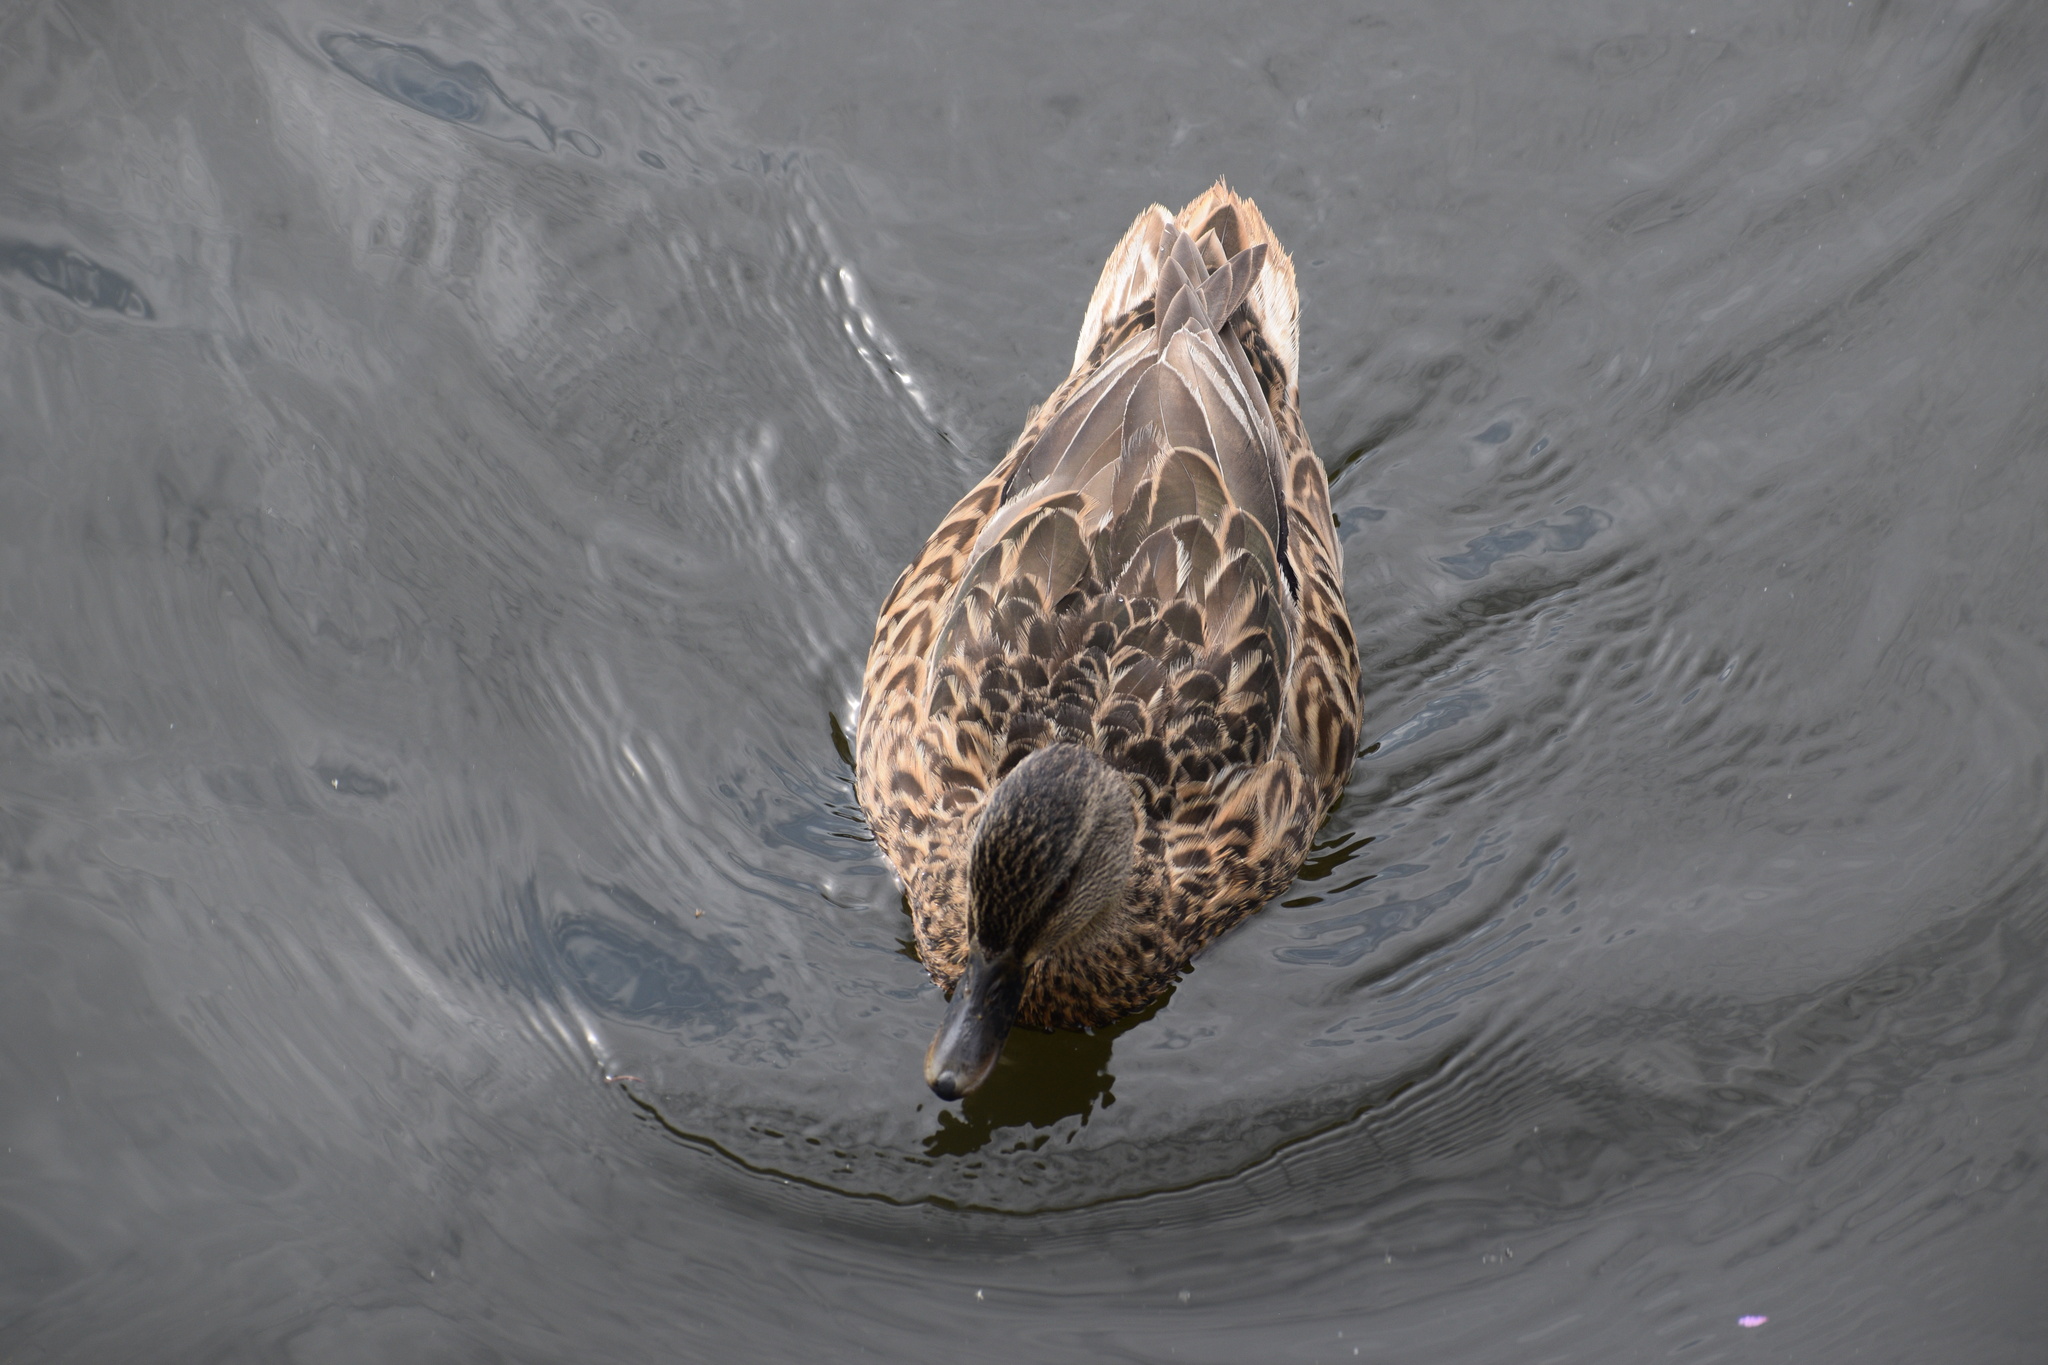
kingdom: Animalia
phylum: Chordata
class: Aves
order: Anseriformes
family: Anatidae
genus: Anas
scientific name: Anas platyrhynchos
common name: Mallard
